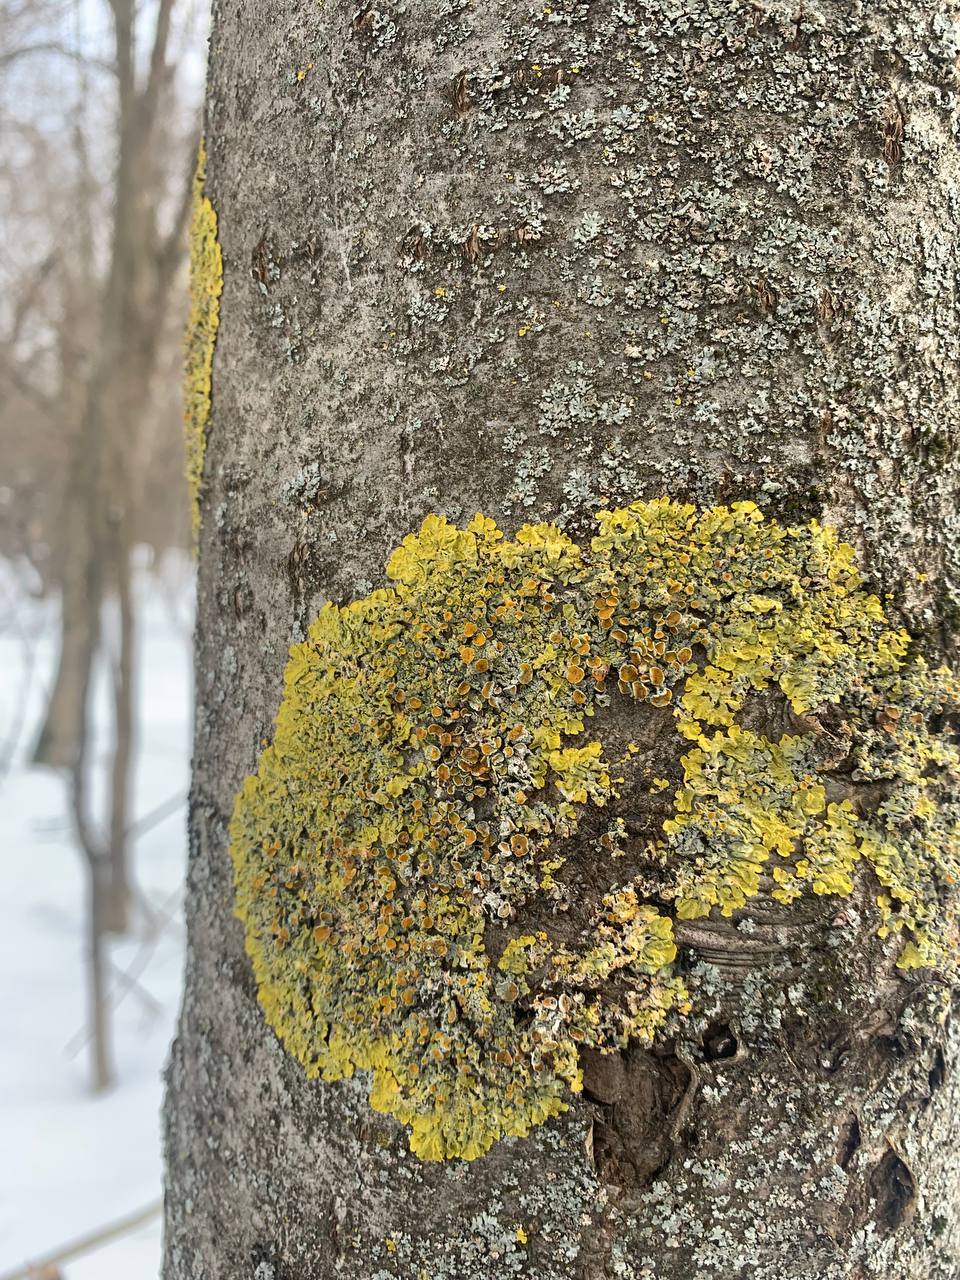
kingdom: Fungi
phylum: Ascomycota
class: Lecanoromycetes
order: Teloschistales
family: Teloschistaceae
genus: Xanthoria
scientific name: Xanthoria parietina
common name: Common orange lichen
